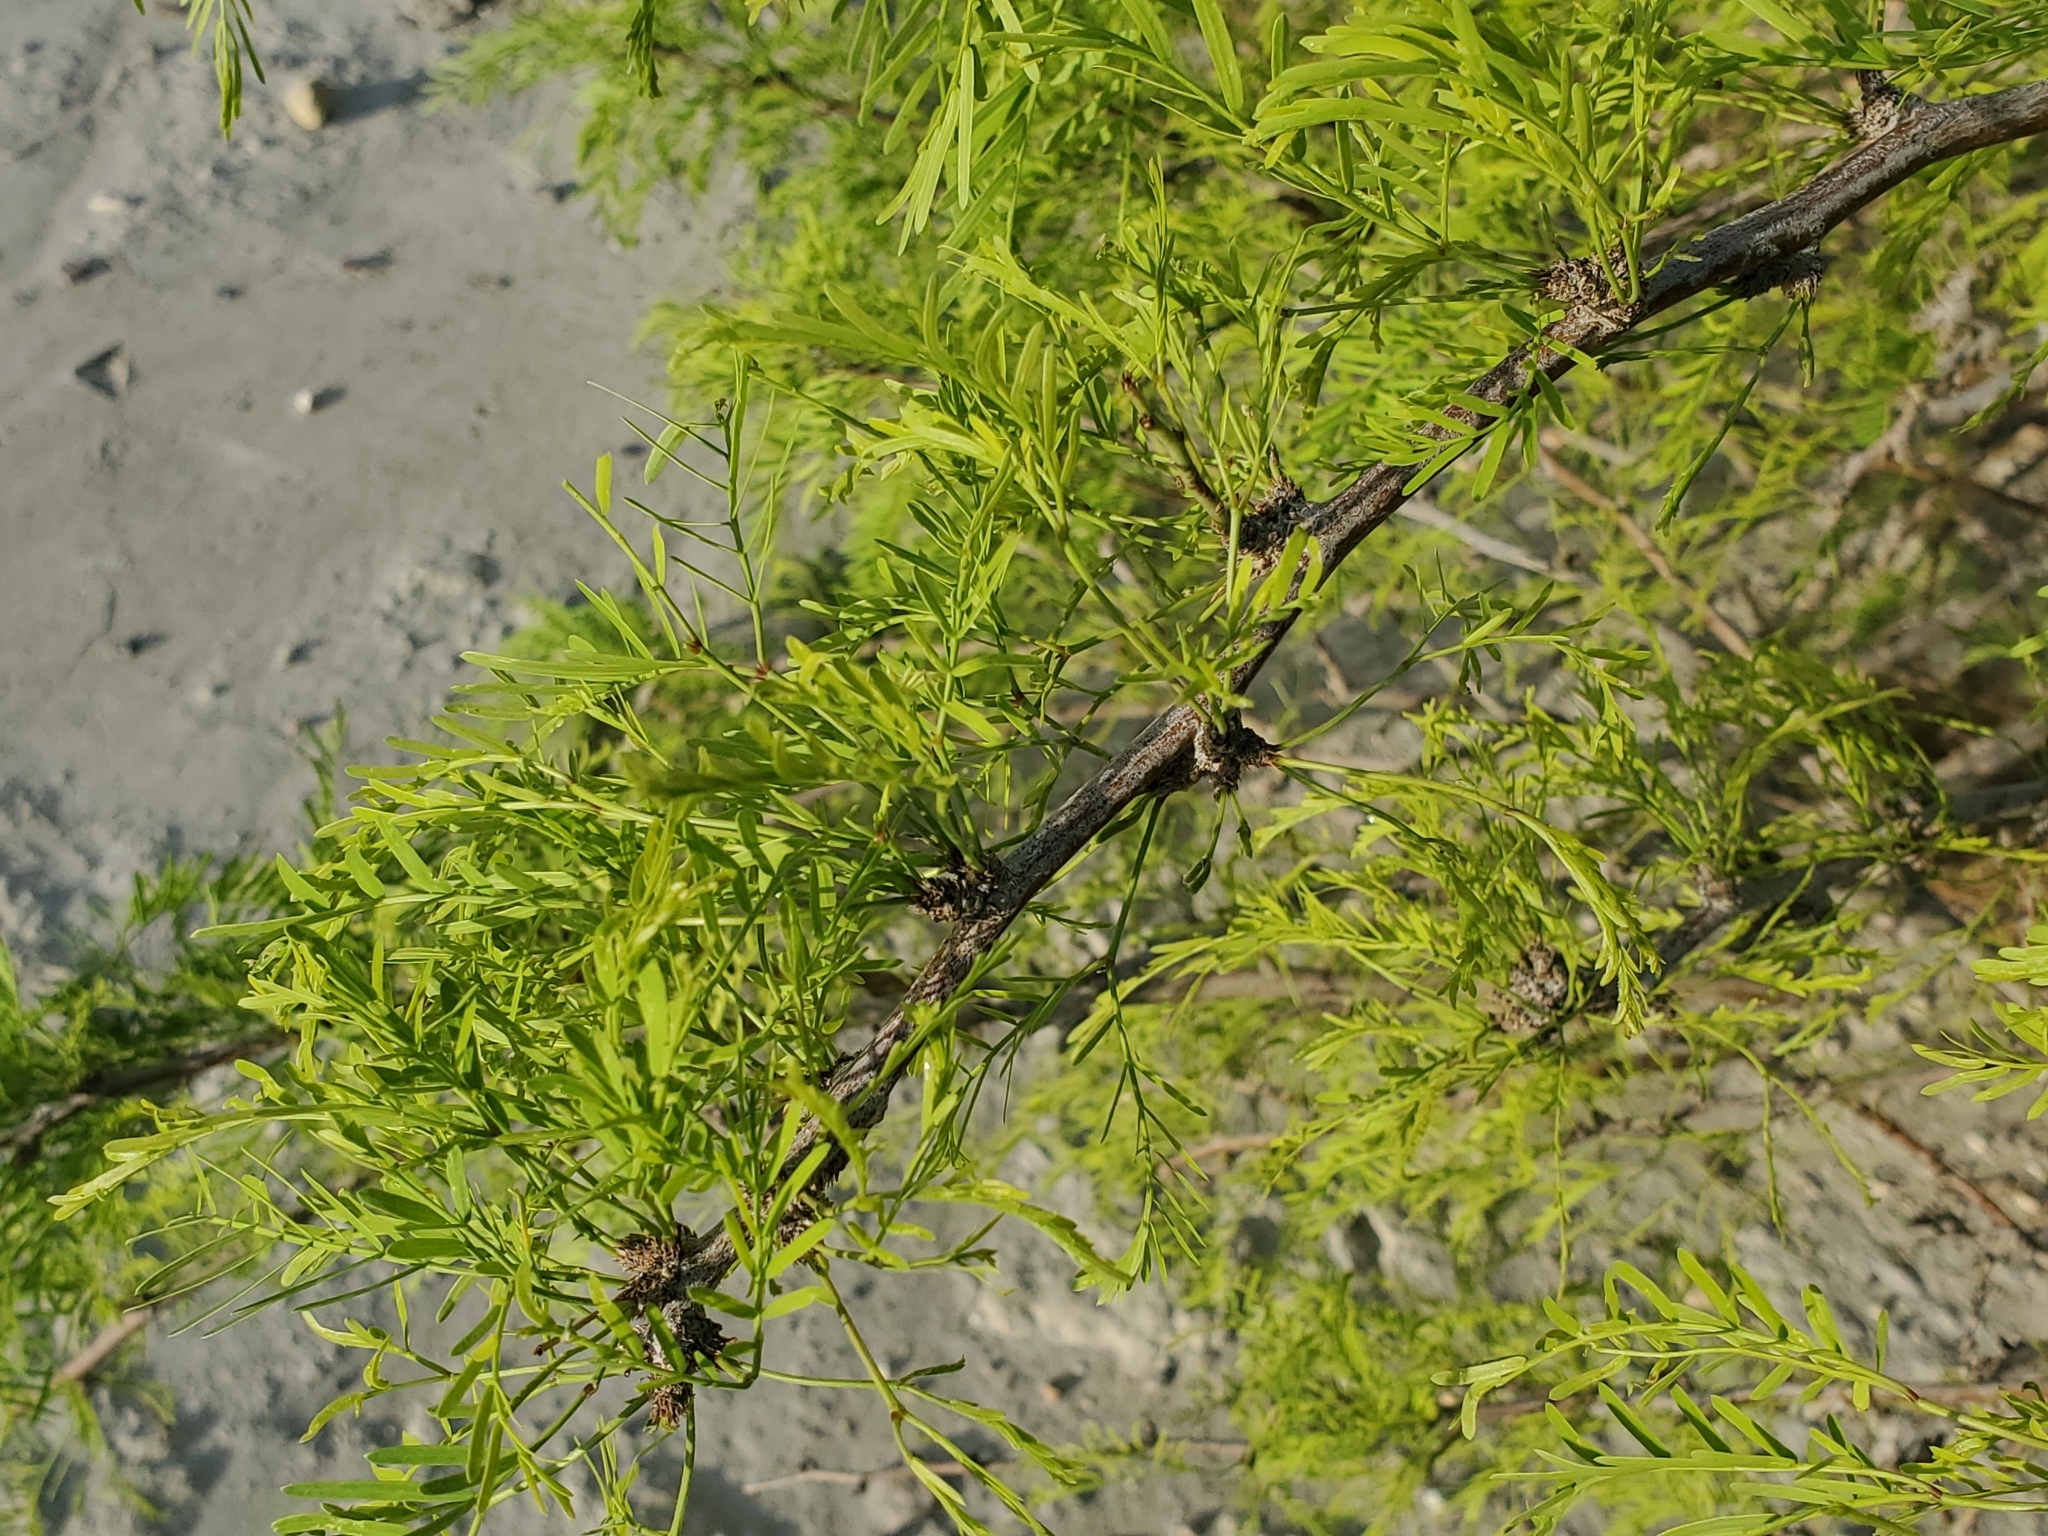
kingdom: Plantae
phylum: Tracheophyta
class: Magnoliopsida
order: Fabales
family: Fabaceae
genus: Prosopis
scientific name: Prosopis glandulosa
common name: Honey mesquite
